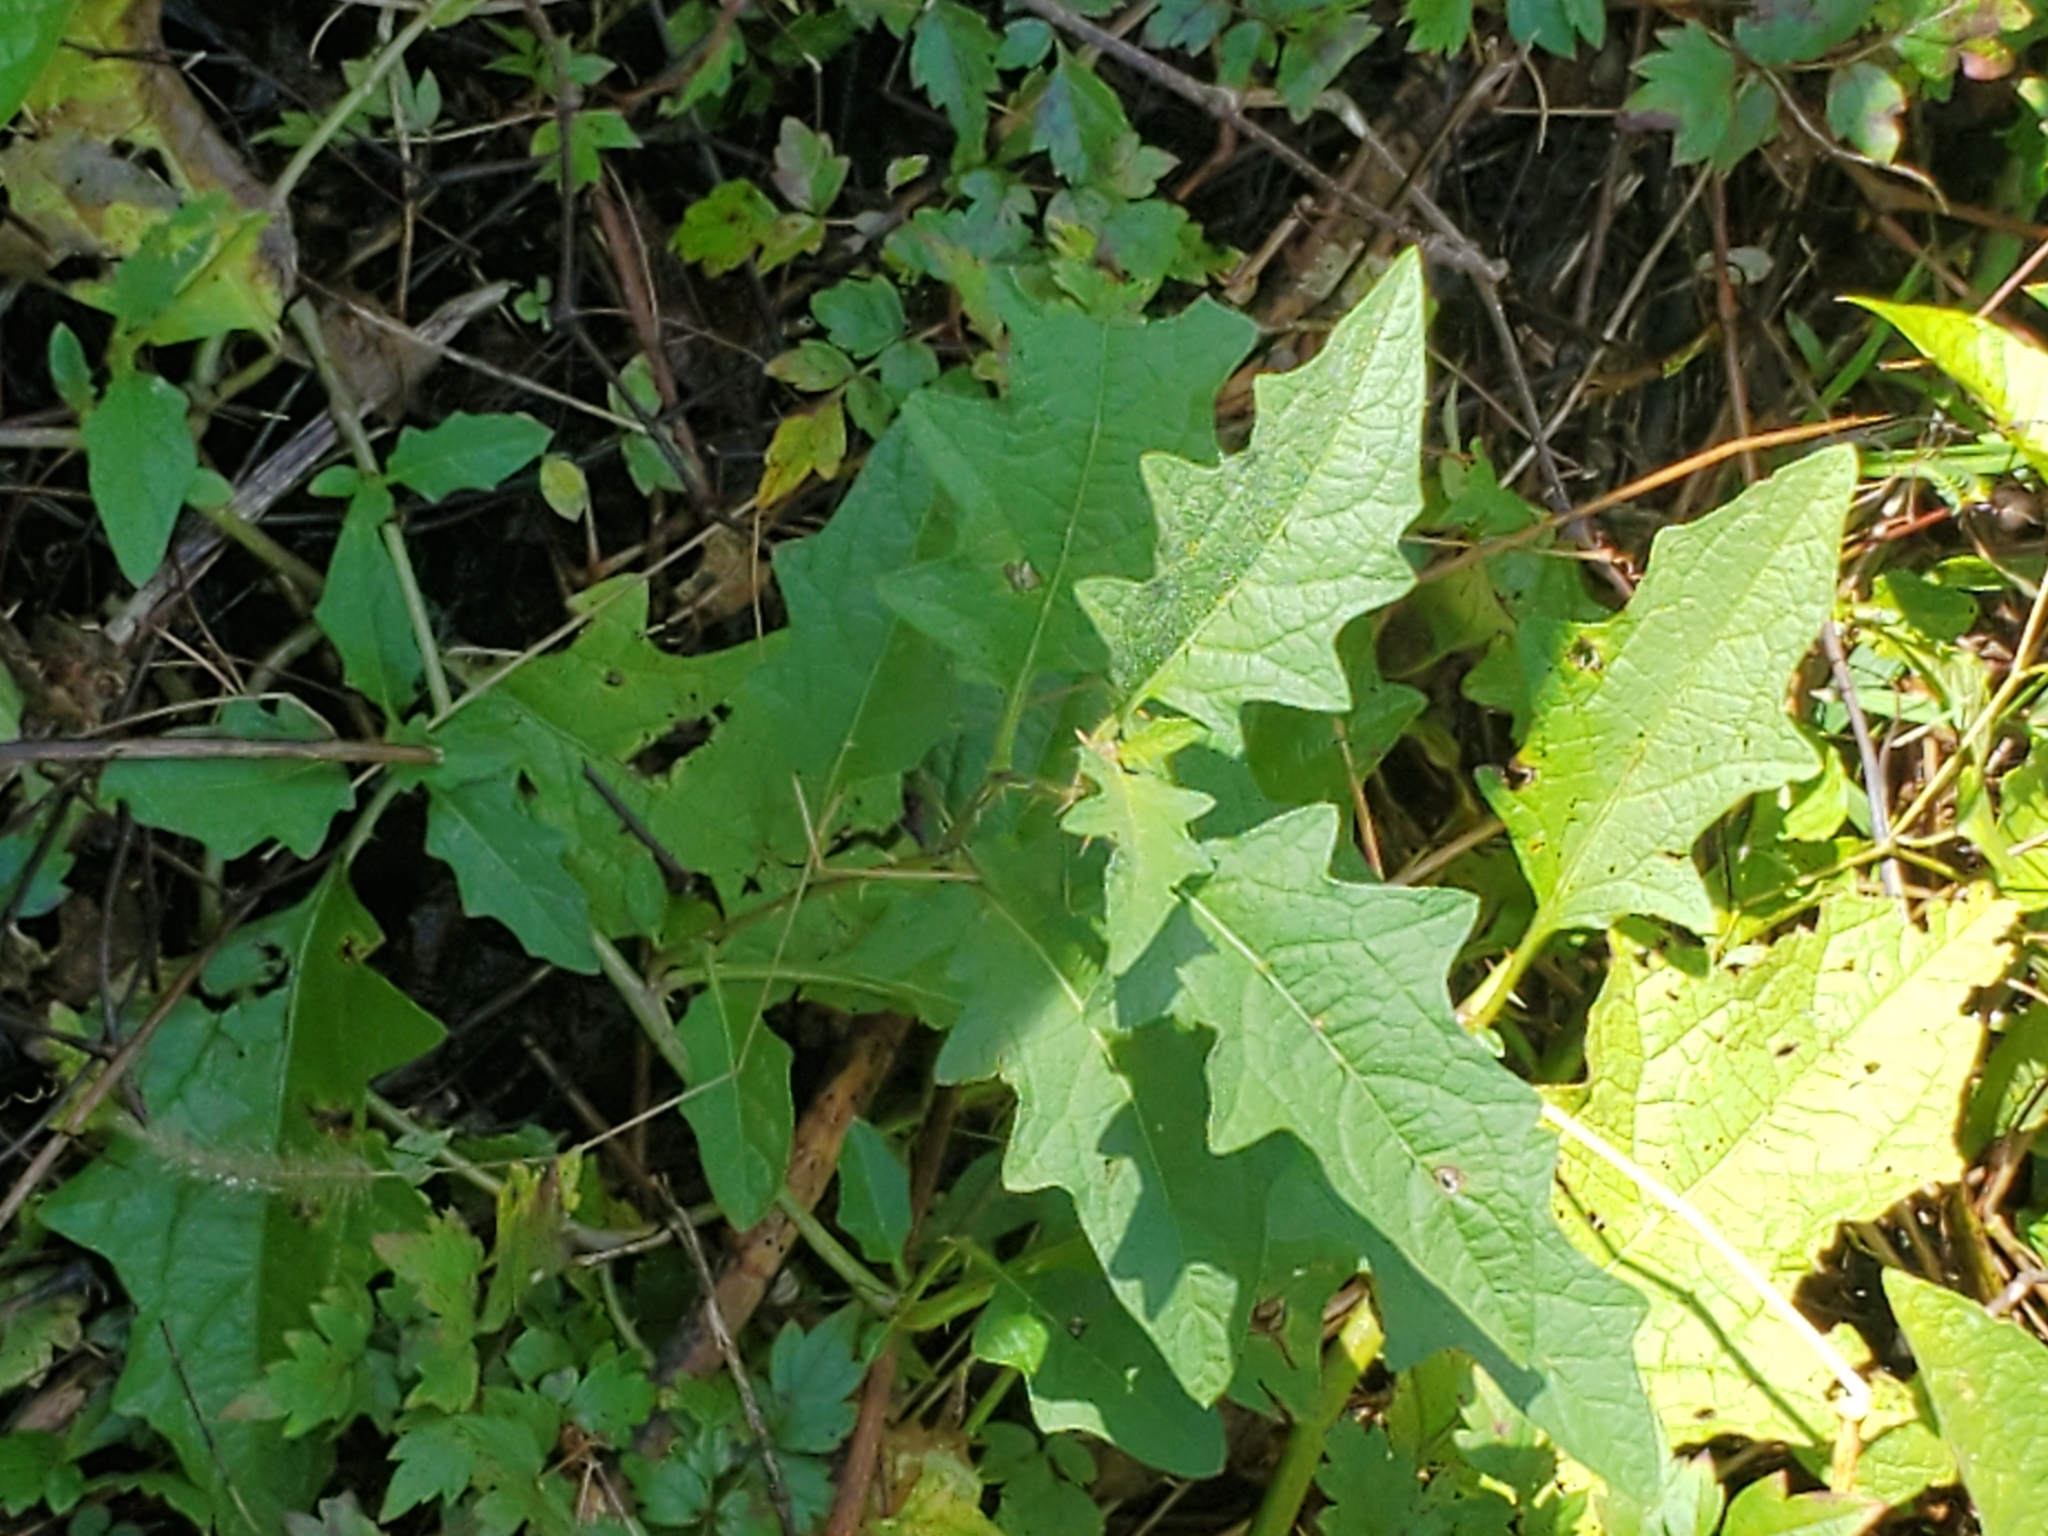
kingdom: Plantae
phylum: Tracheophyta
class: Magnoliopsida
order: Solanales
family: Solanaceae
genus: Solanum
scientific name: Solanum carolinense
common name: Horse-nettle
